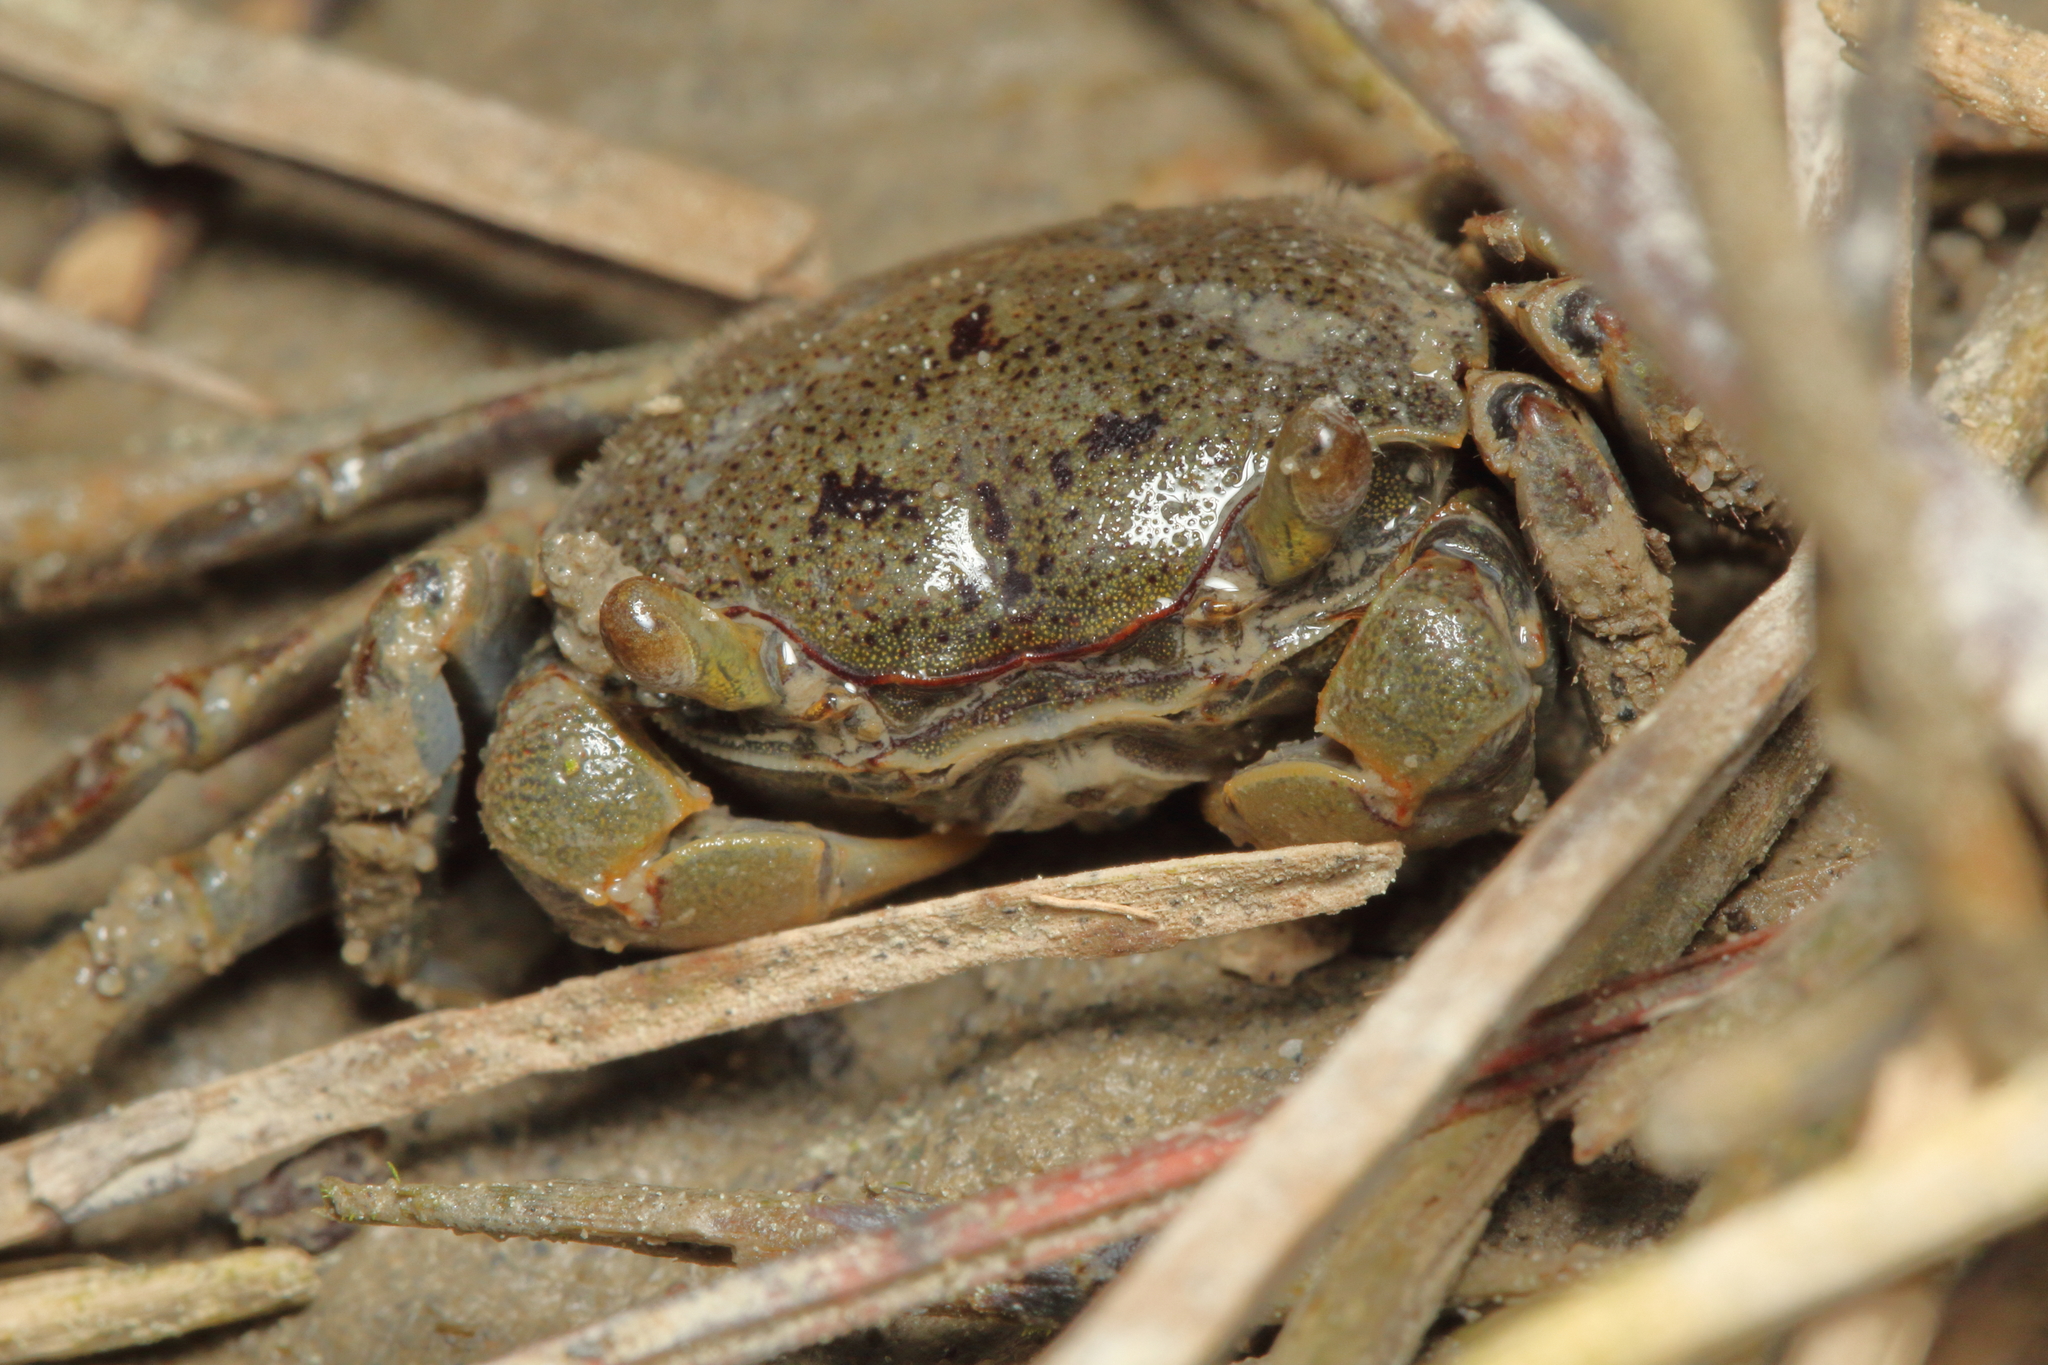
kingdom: Animalia
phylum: Arthropoda
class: Malacostraca
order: Decapoda
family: Varunidae
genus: Austrohelice
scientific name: Austrohelice crassa
